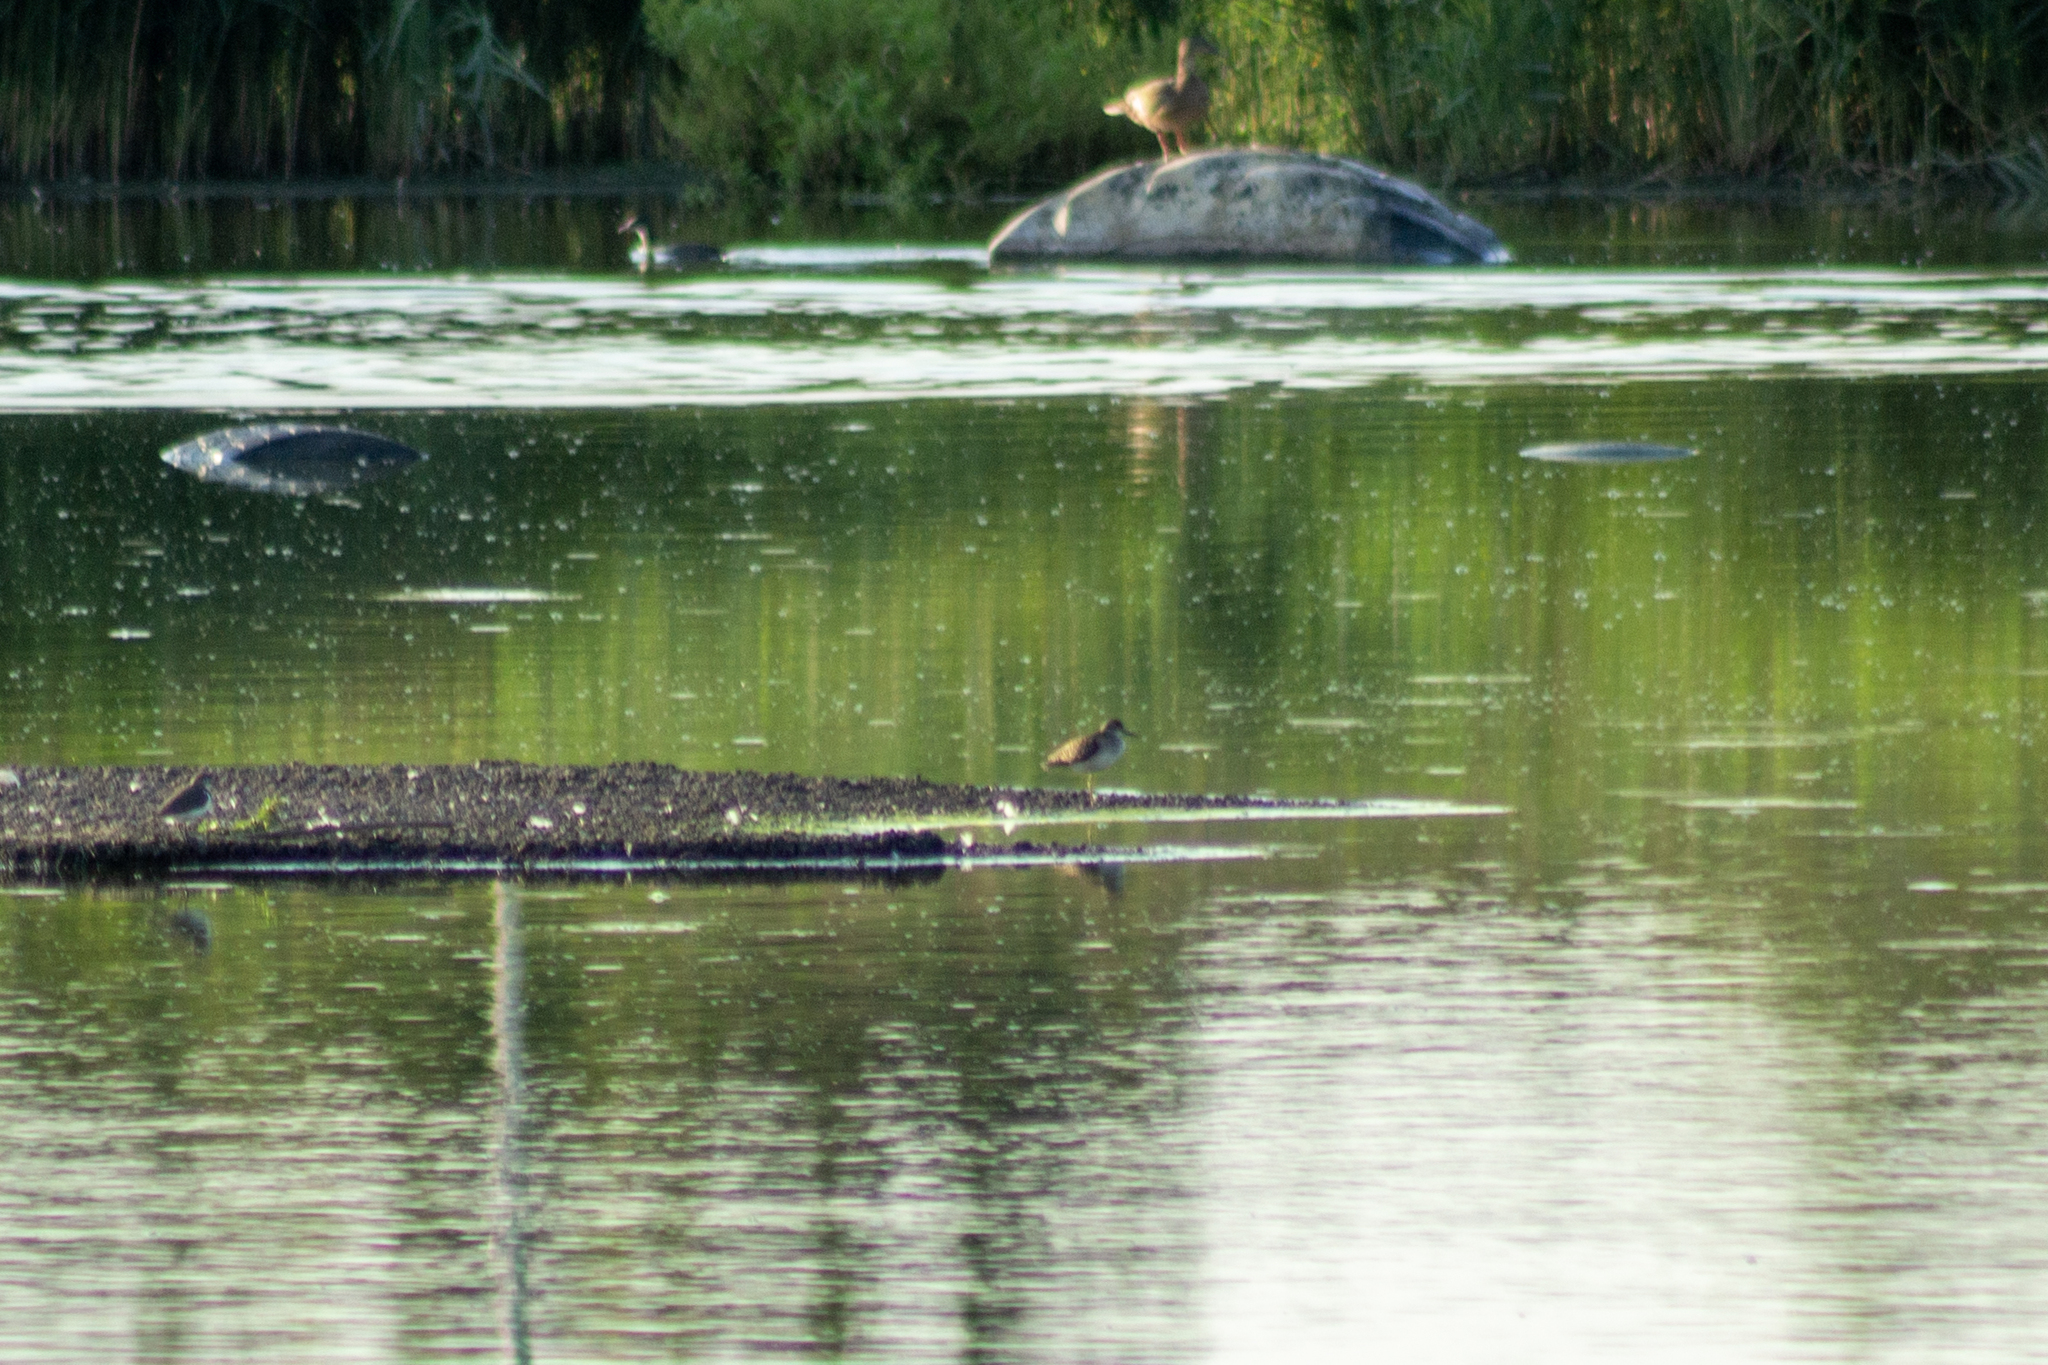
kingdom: Animalia
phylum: Chordata
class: Aves
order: Charadriiformes
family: Scolopacidae
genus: Tringa
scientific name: Tringa glareola
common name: Wood sandpiper
